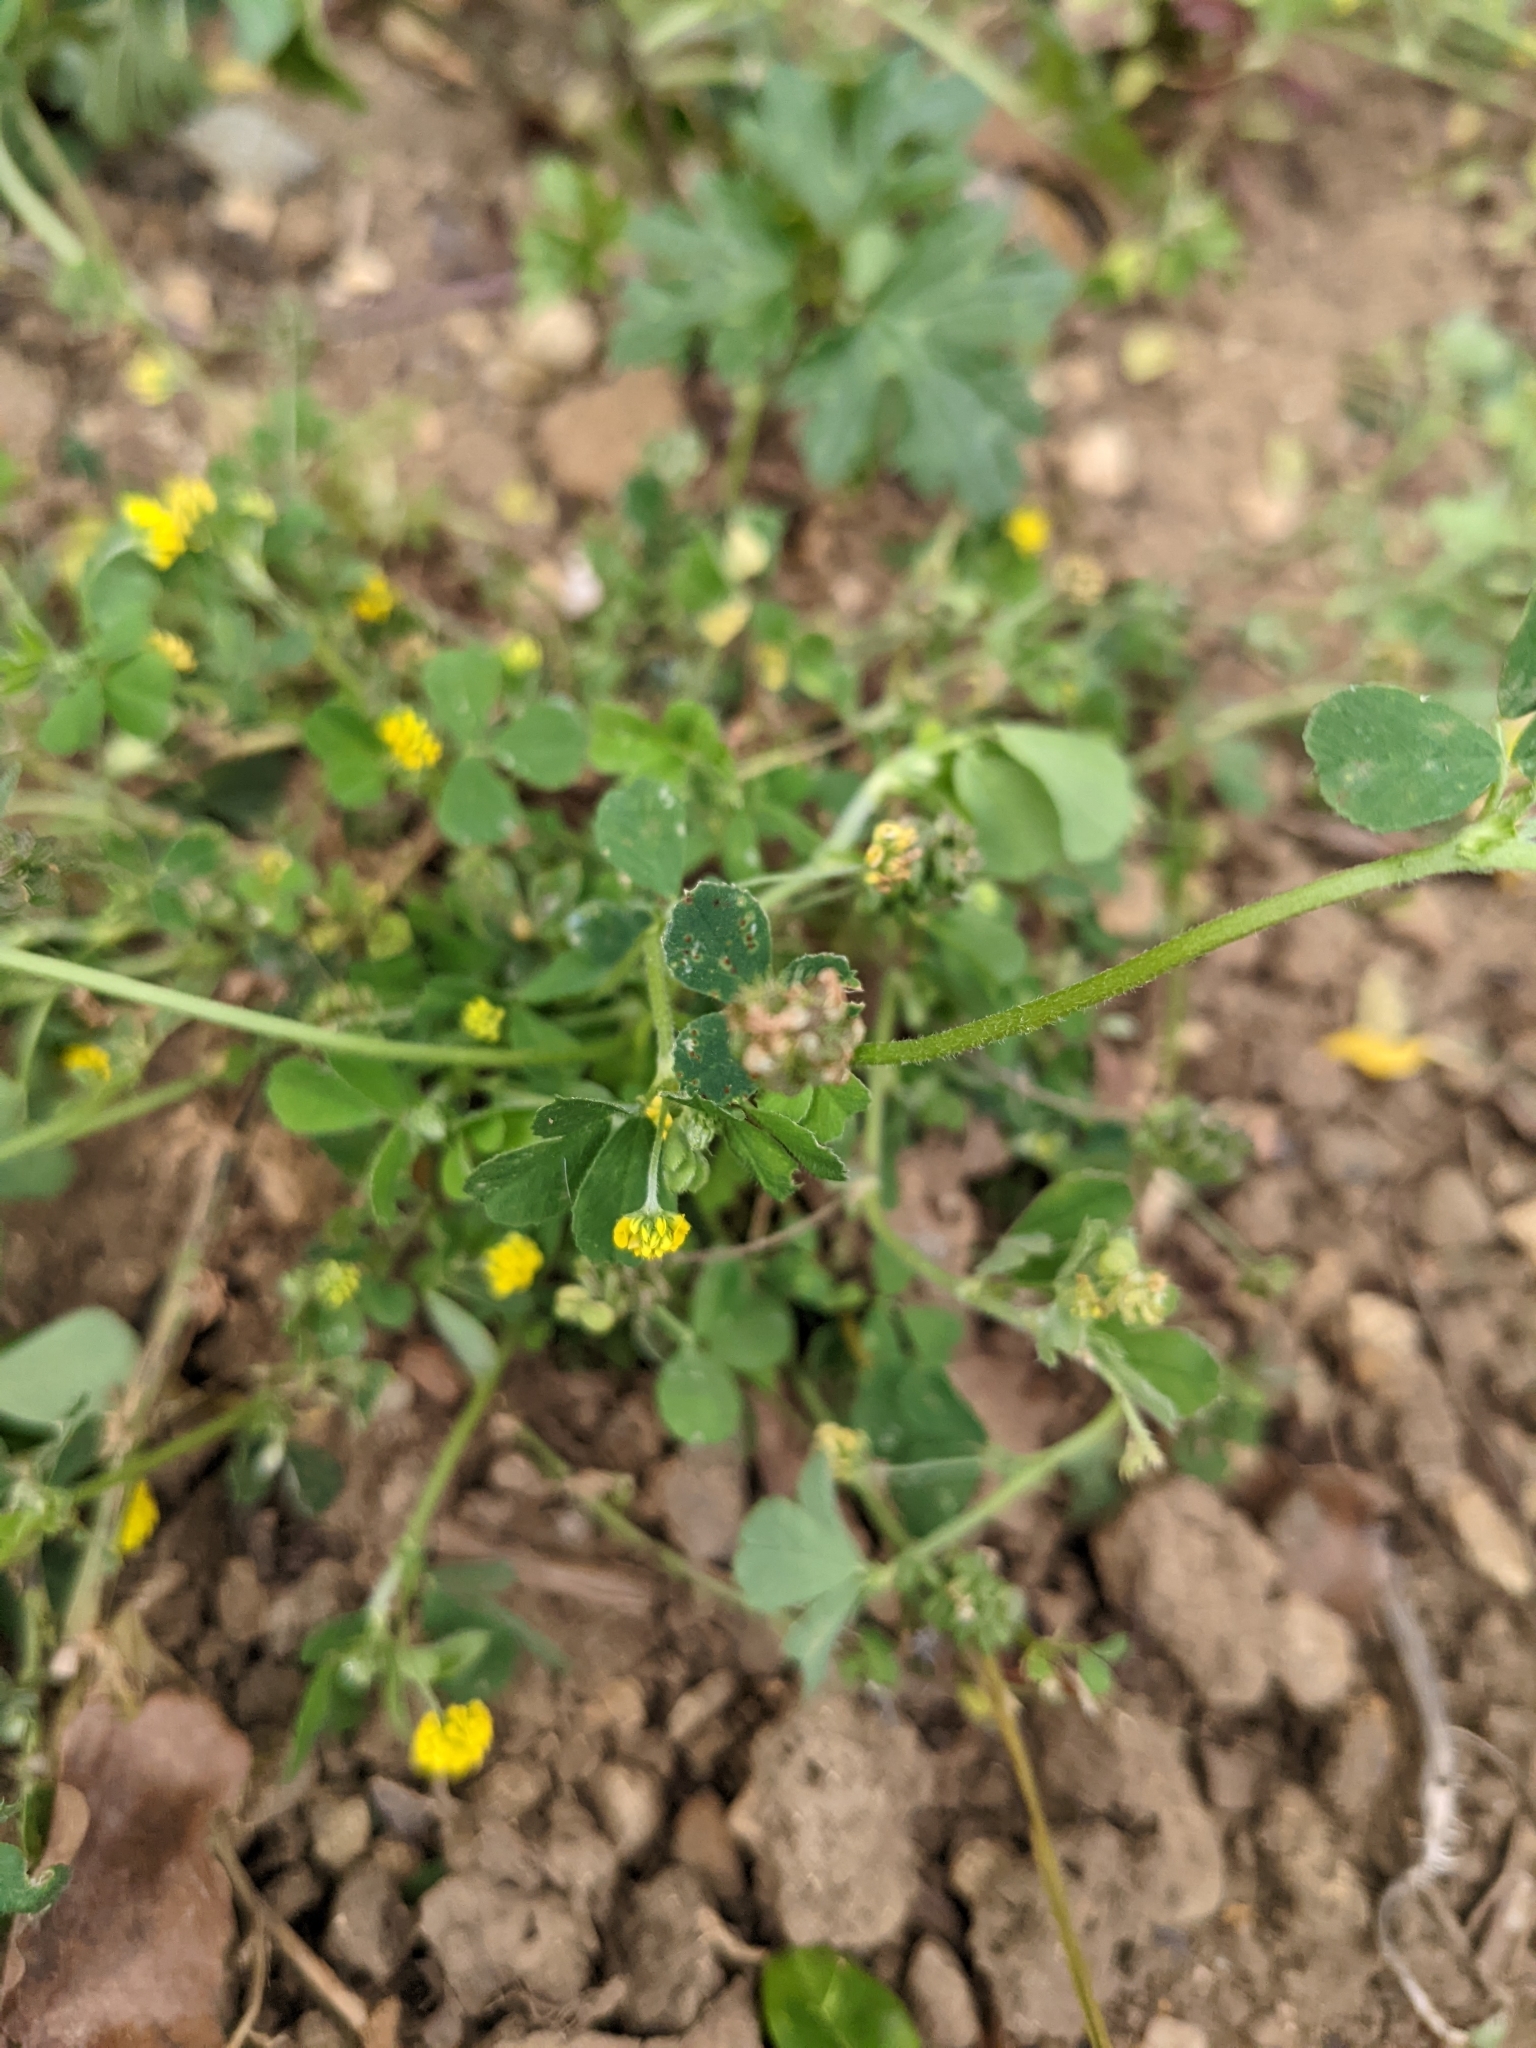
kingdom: Plantae
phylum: Tracheophyta
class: Magnoliopsida
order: Fabales
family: Fabaceae
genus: Medicago
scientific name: Medicago lupulina
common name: Black medick
